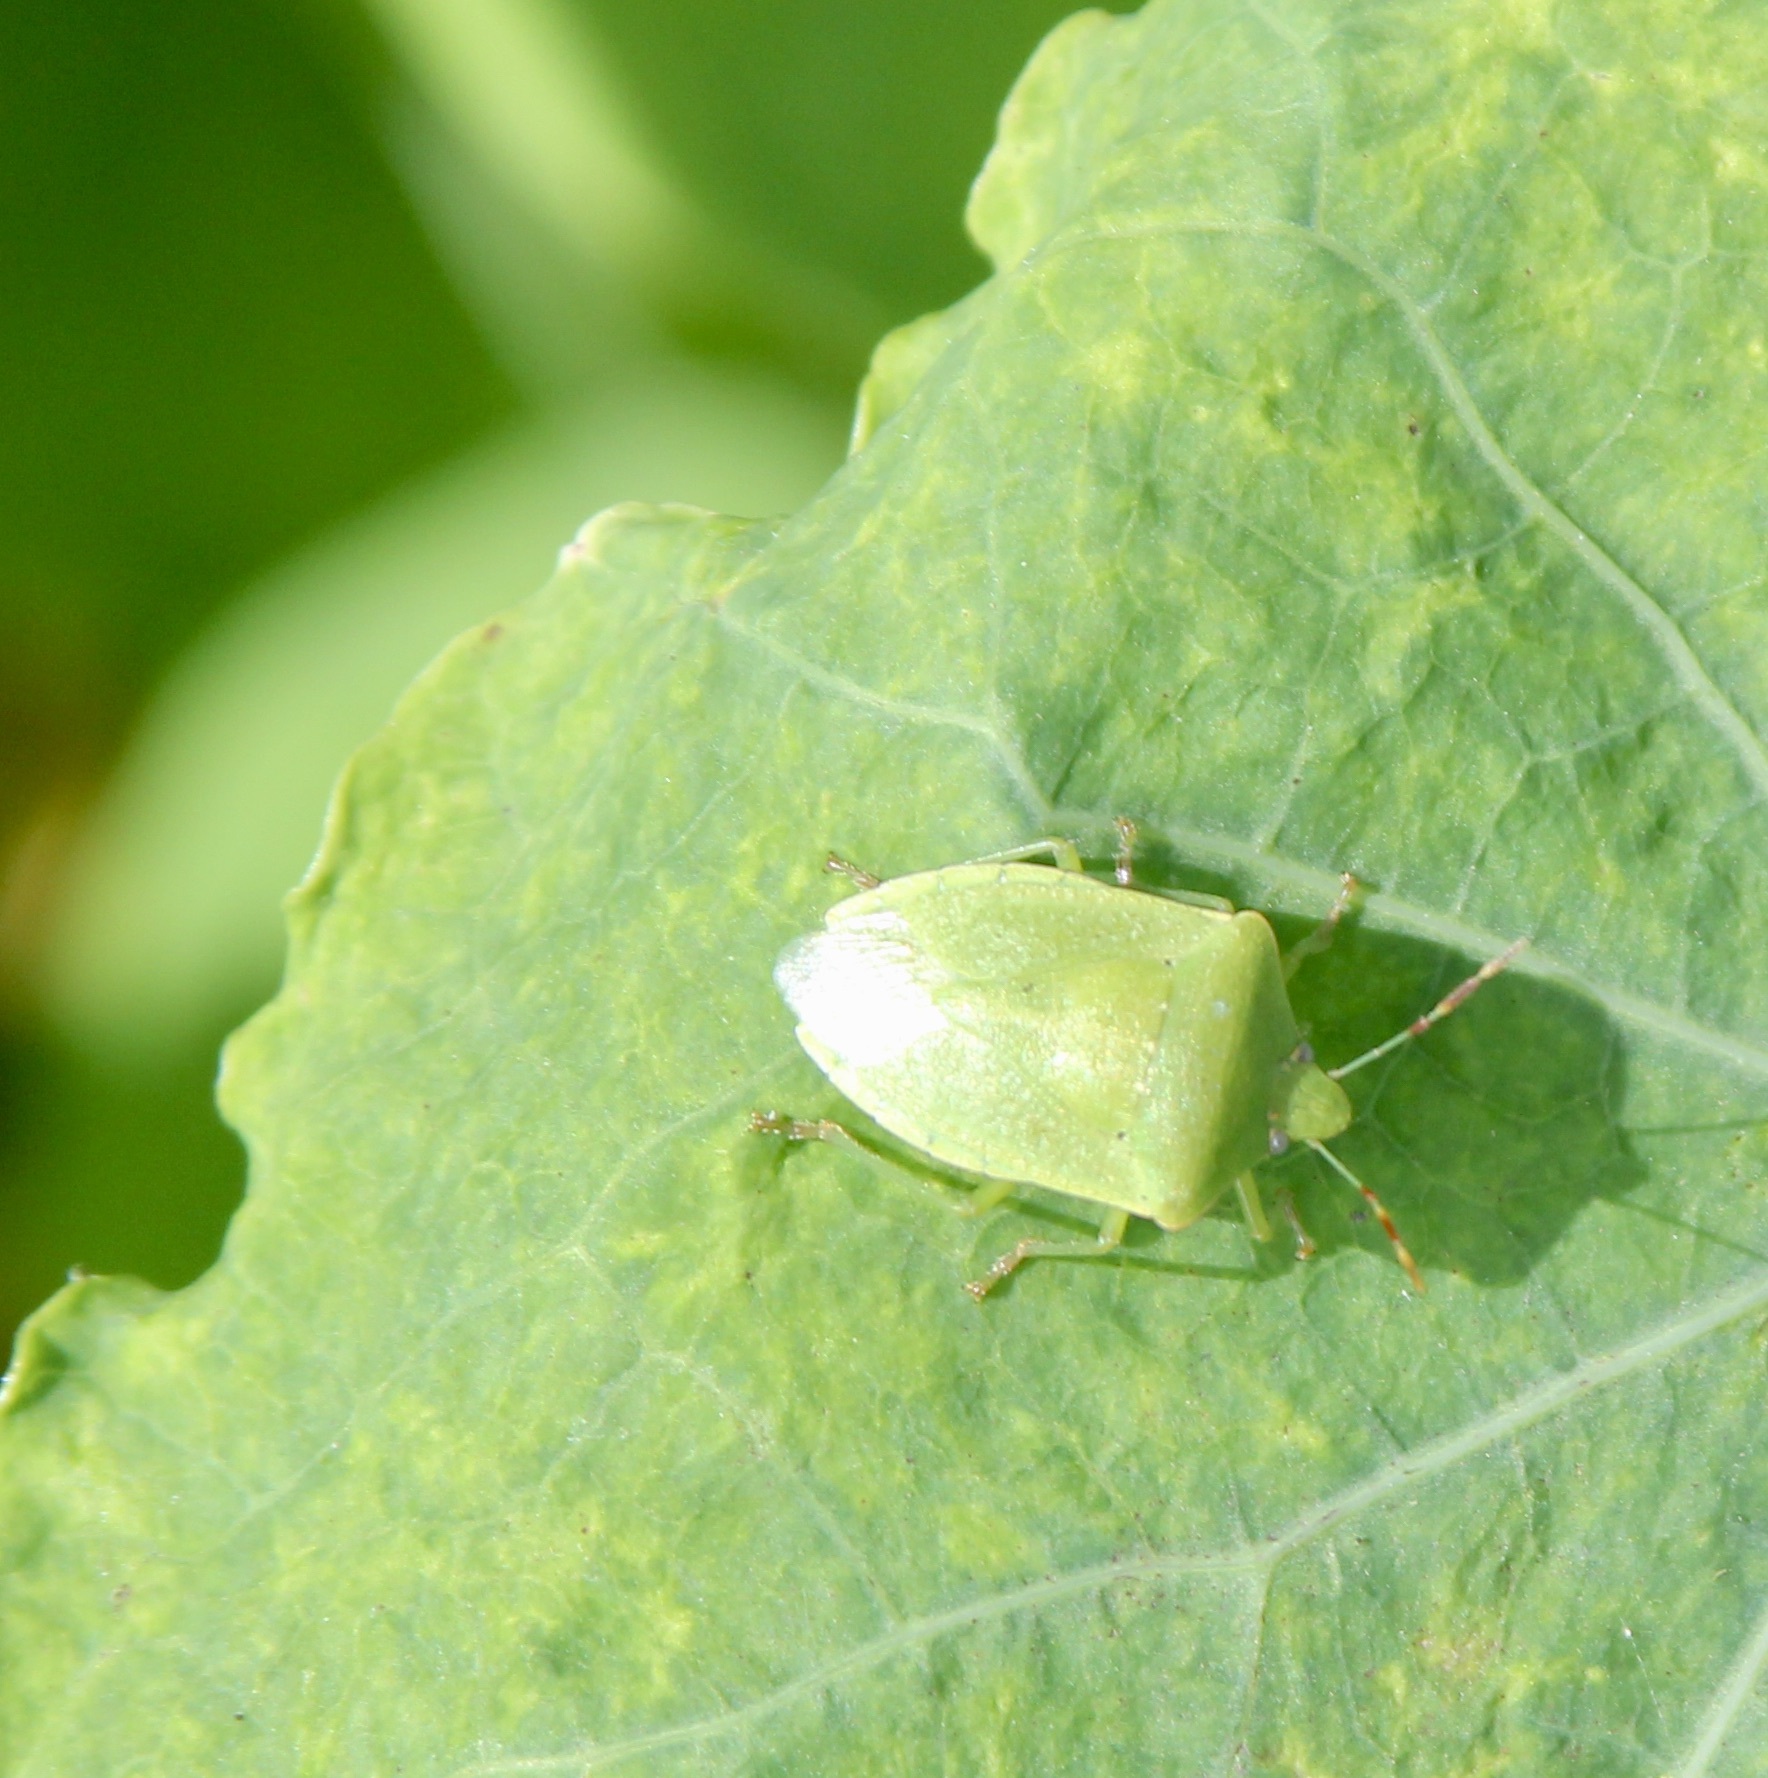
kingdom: Animalia
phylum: Arthropoda
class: Insecta
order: Hemiptera
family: Pentatomidae
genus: Nezara
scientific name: Nezara viridula
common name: Southern green stink bug
